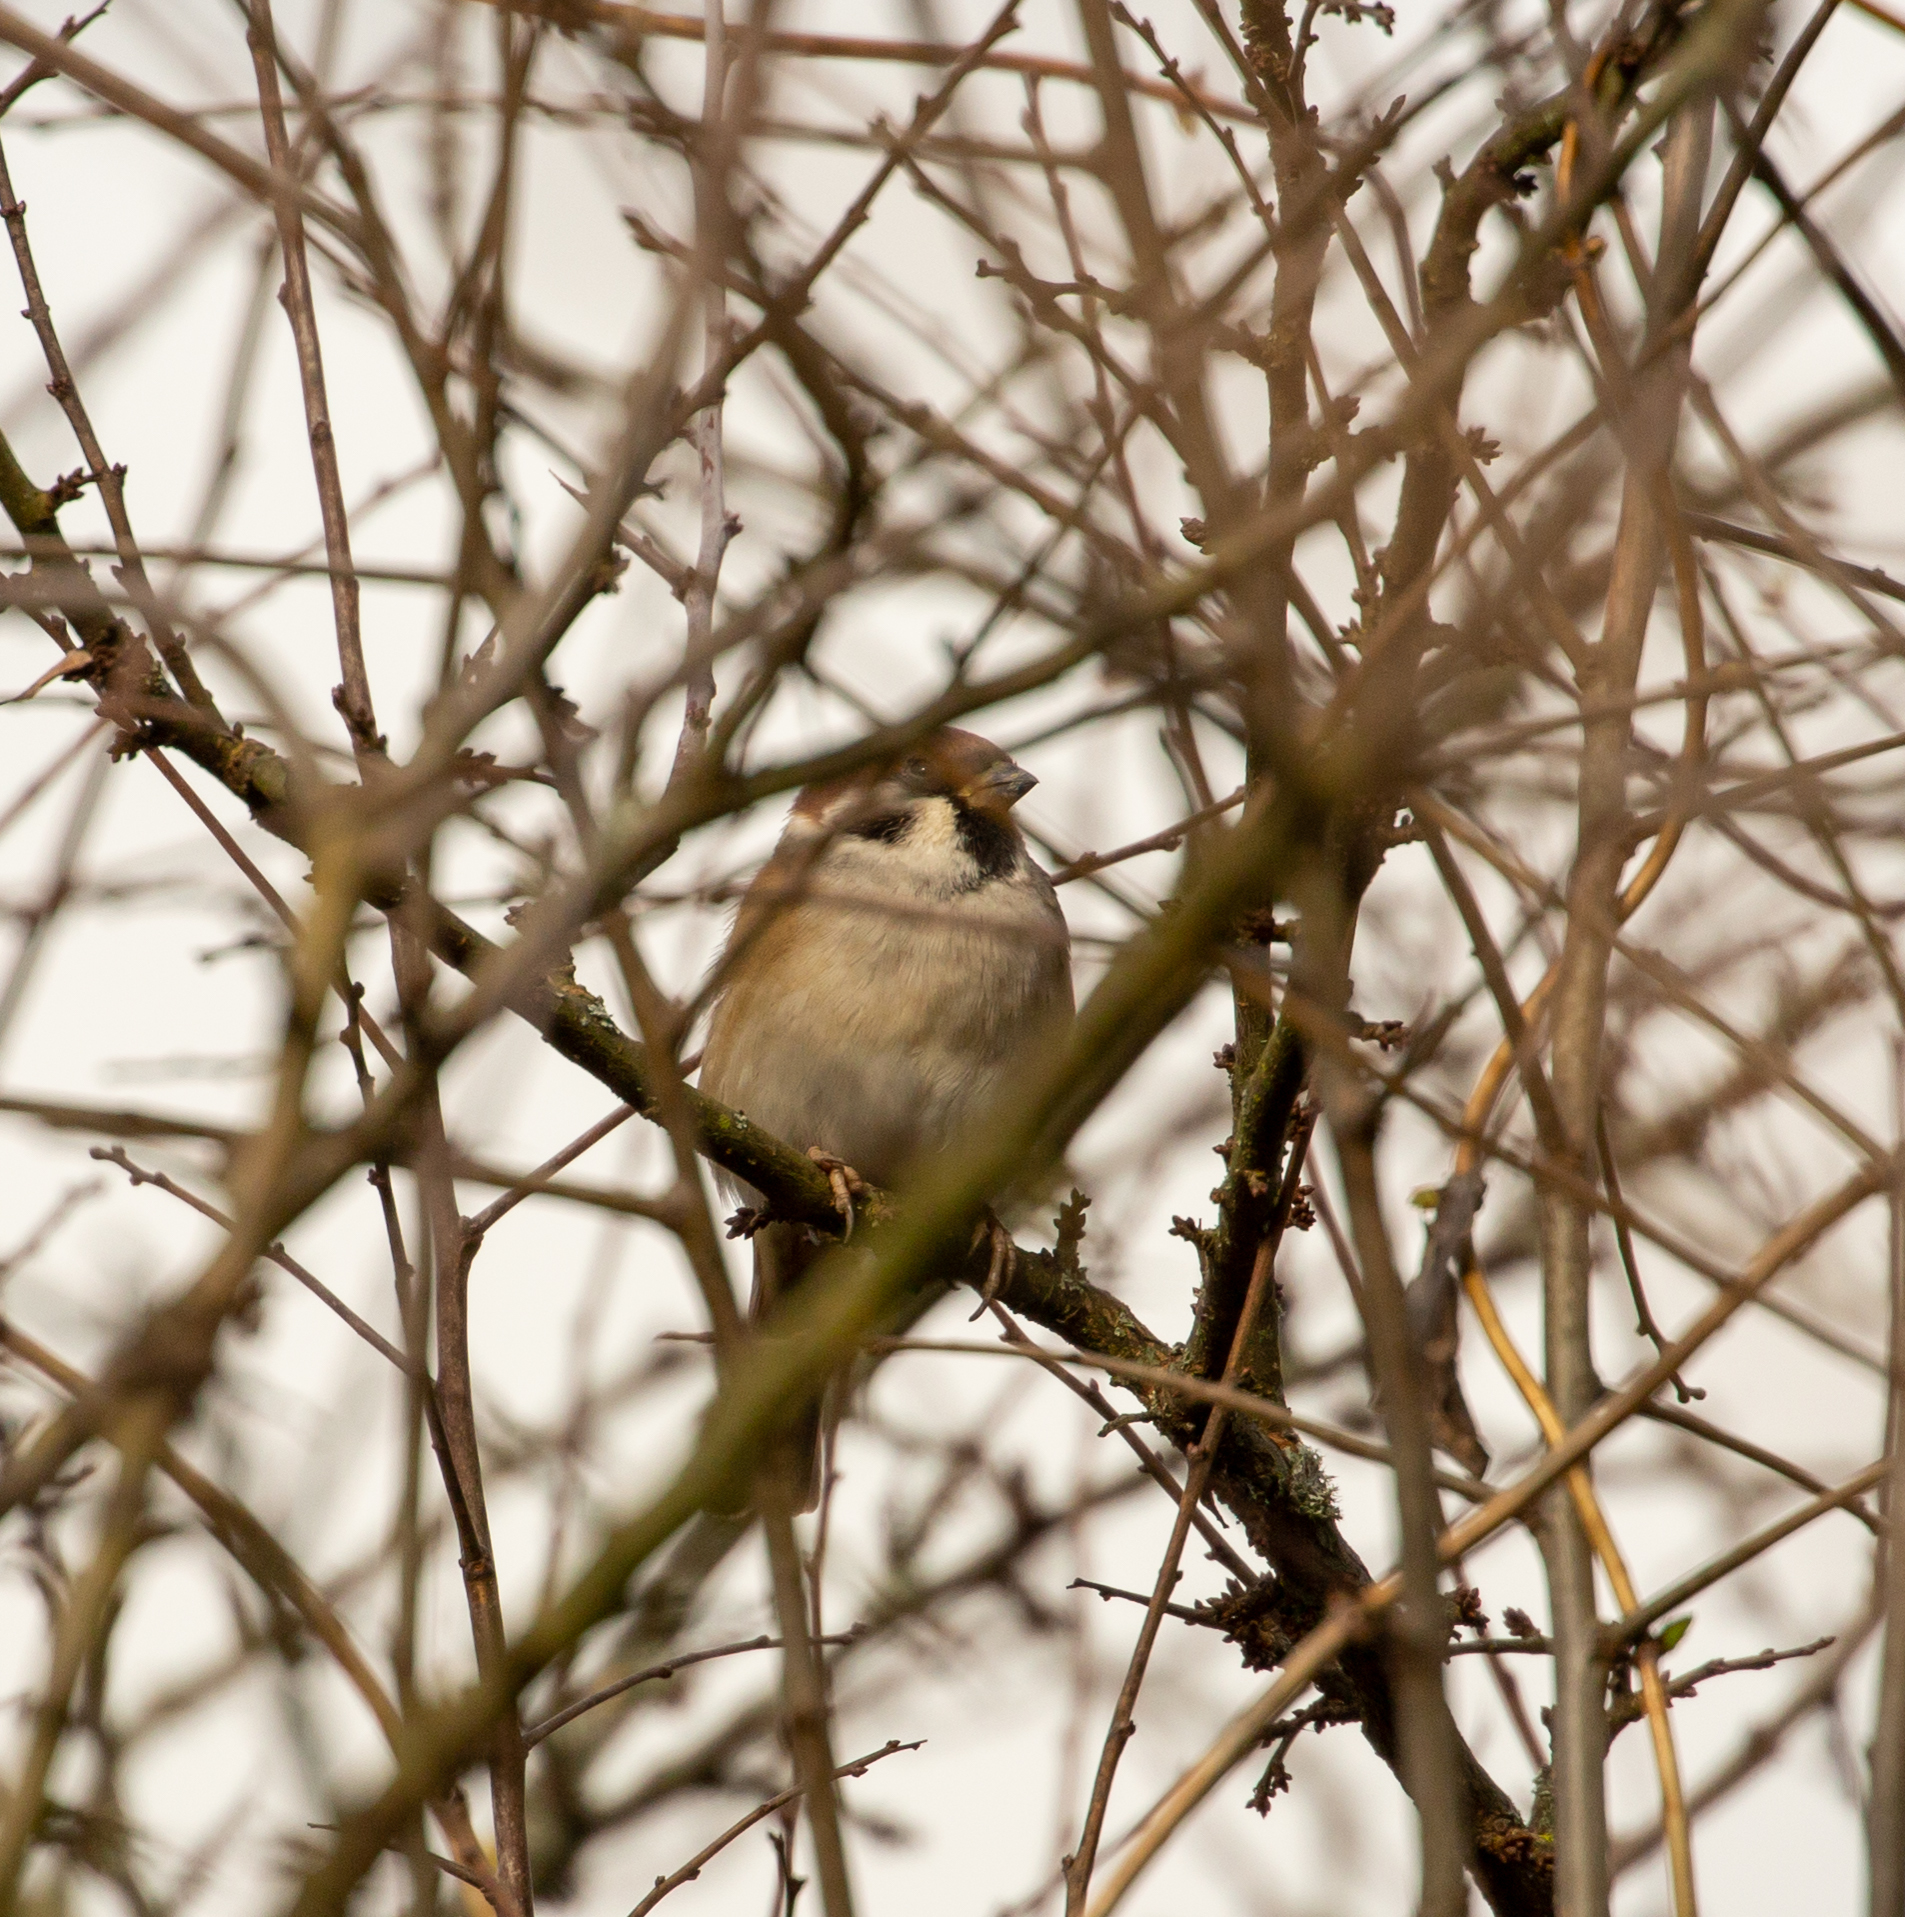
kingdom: Animalia
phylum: Chordata
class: Aves
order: Passeriformes
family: Passeridae
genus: Passer
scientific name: Passer montanus
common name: Eurasian tree sparrow
